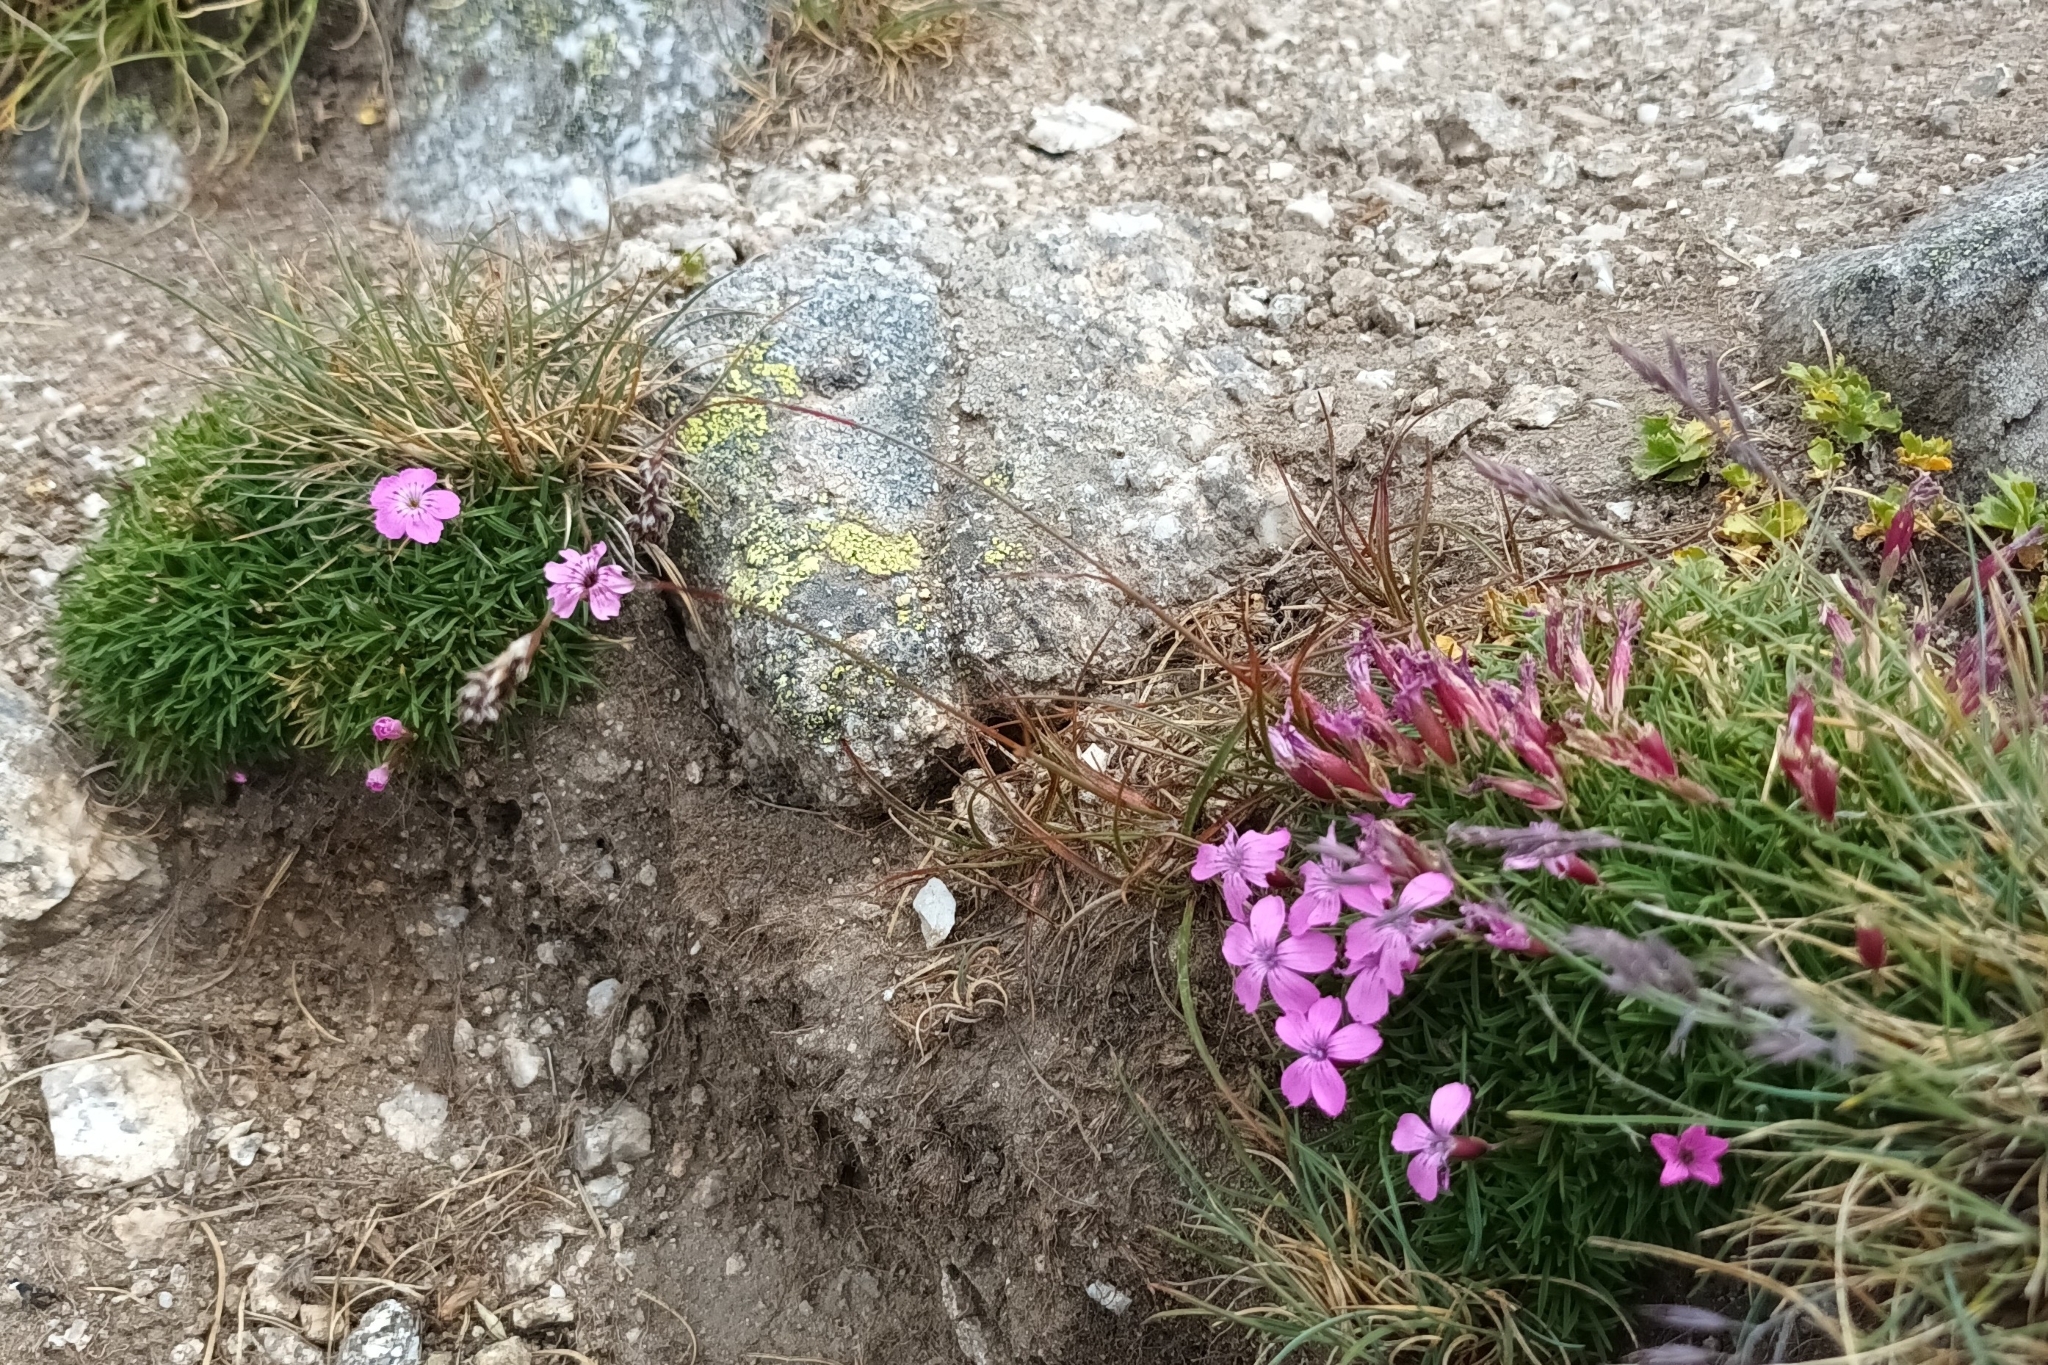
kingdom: Plantae
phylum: Tracheophyta
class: Magnoliopsida
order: Caryophyllales
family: Caryophyllaceae
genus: Dianthus
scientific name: Dianthus microlepis
